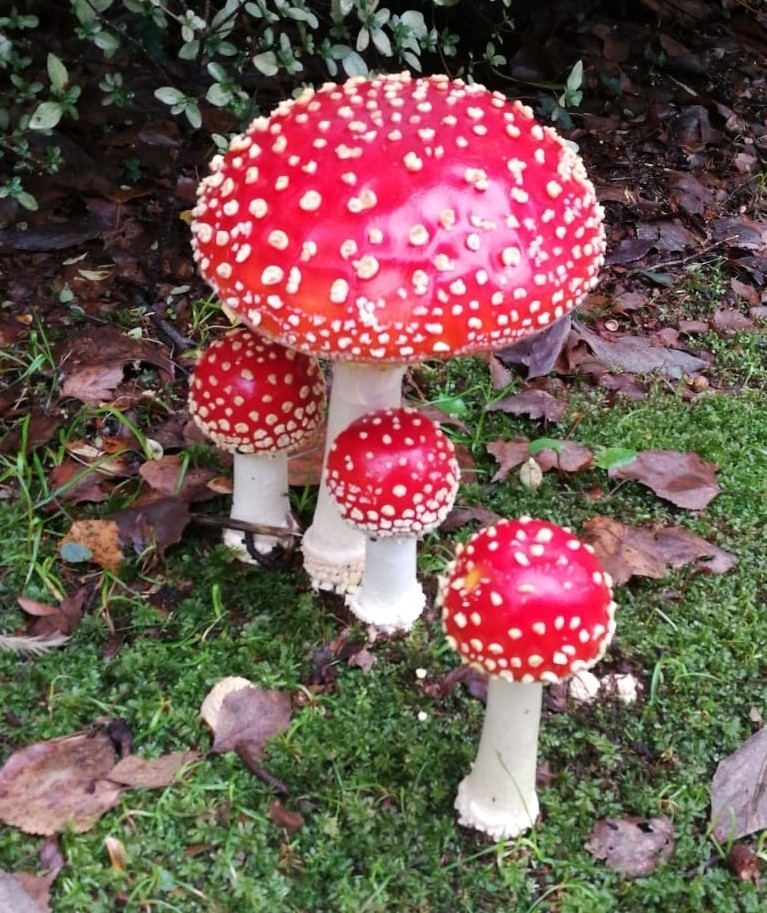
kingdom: Fungi
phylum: Basidiomycota
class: Agaricomycetes
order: Agaricales
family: Amanitaceae
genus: Amanita
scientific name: Amanita muscaria
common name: Fly agaric
